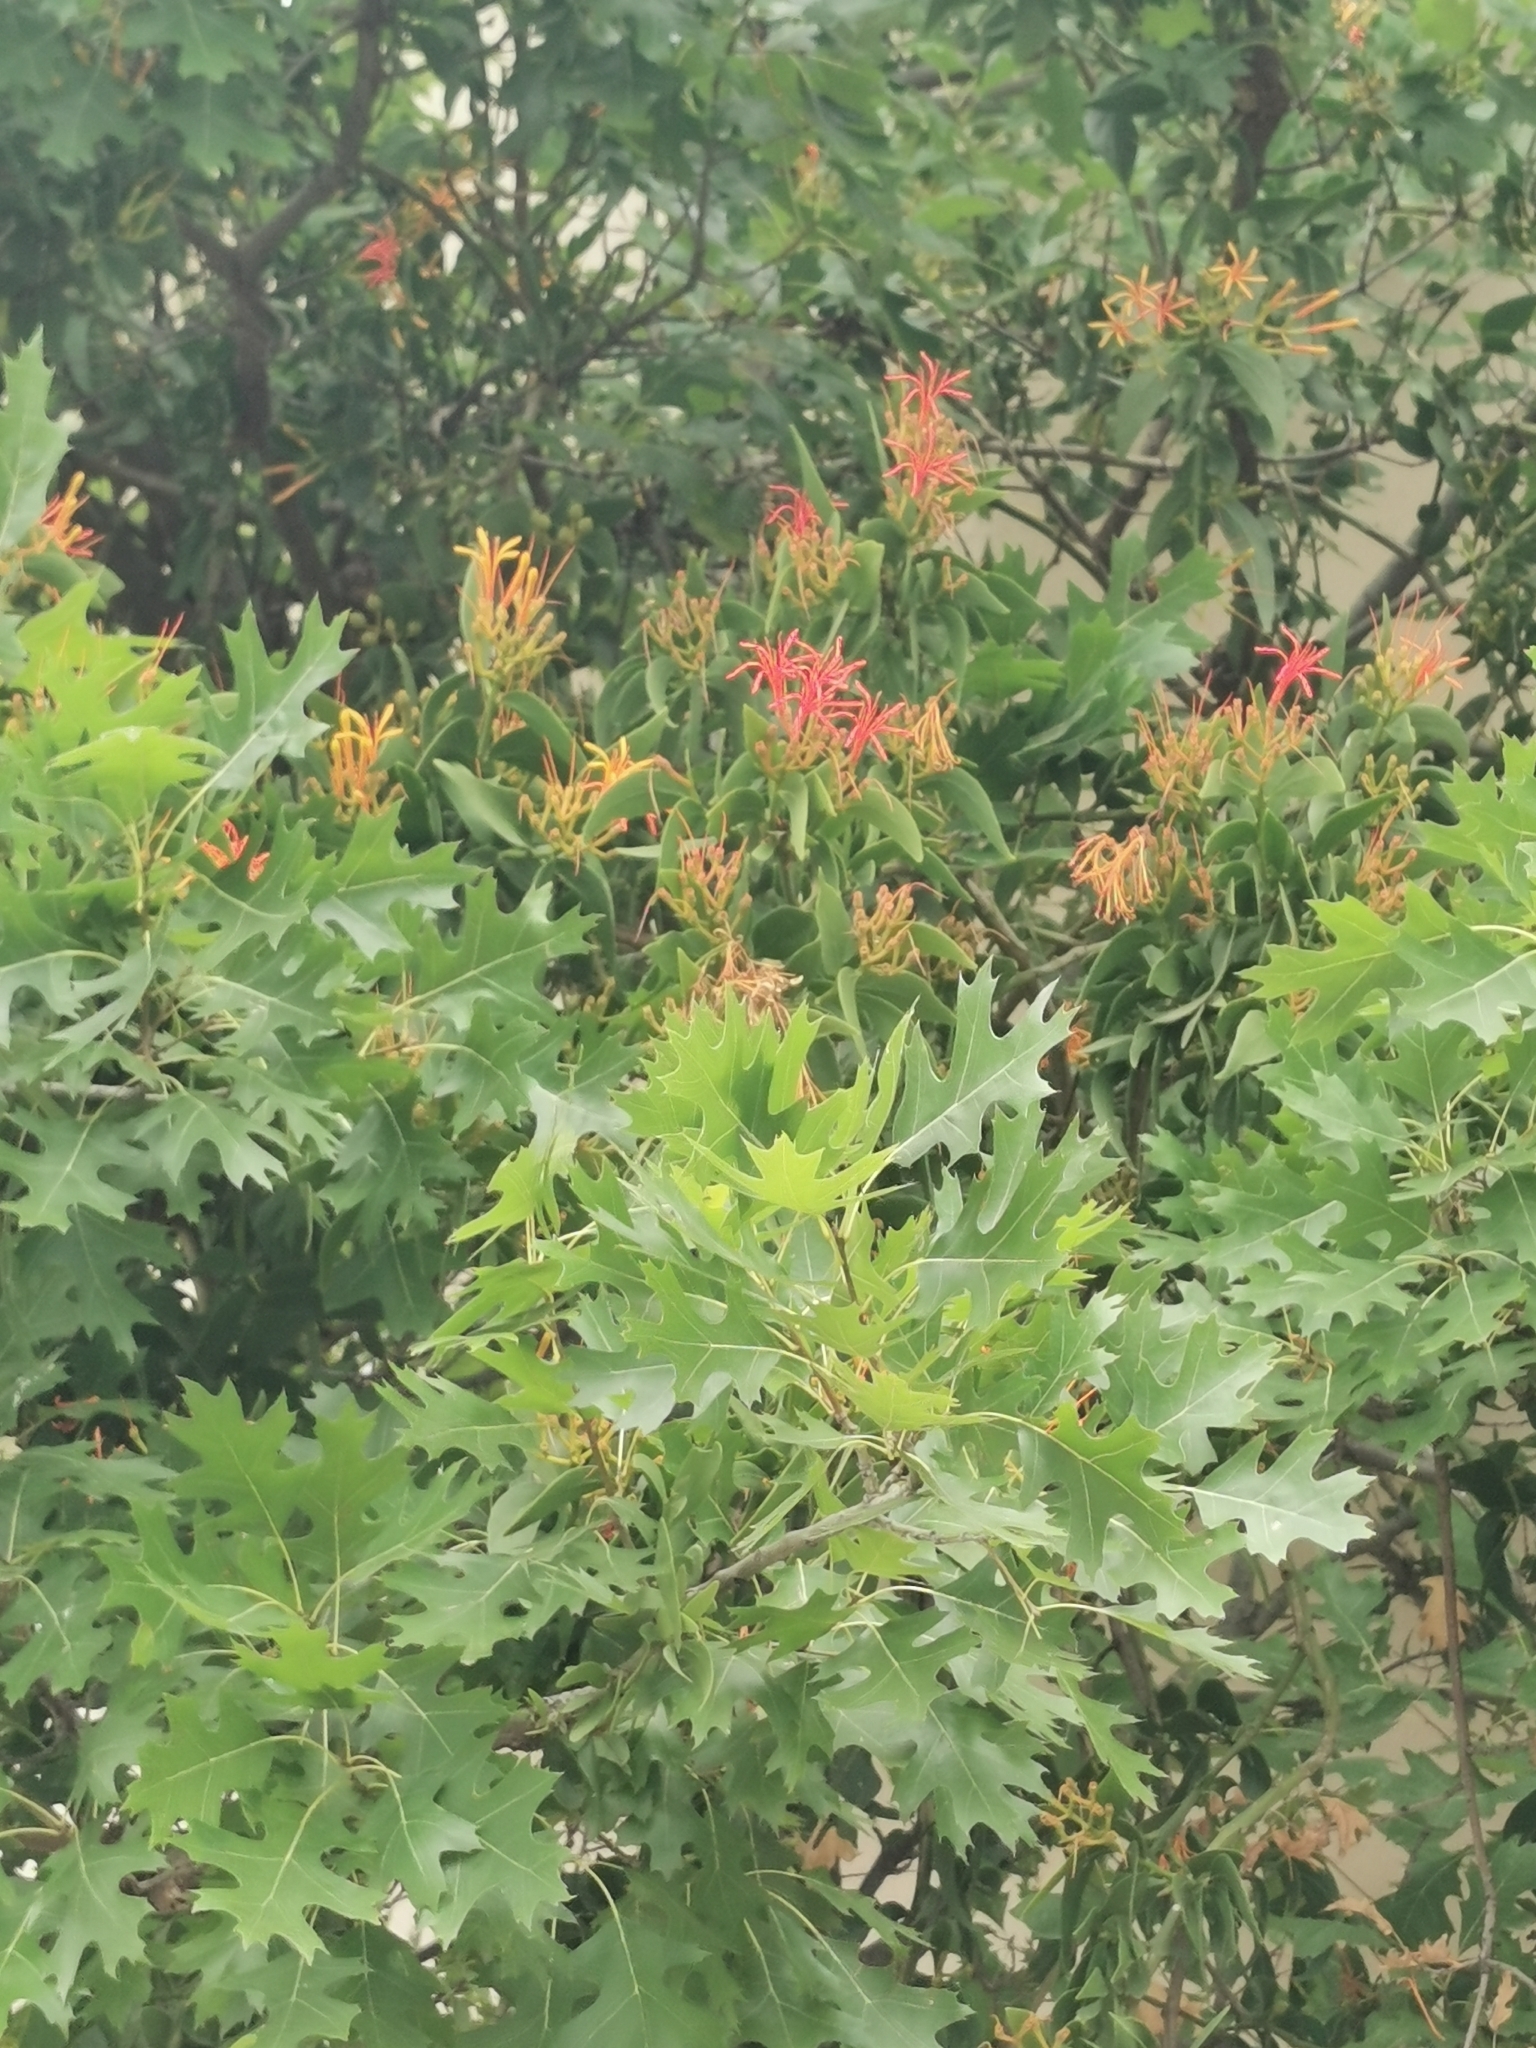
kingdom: Plantae
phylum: Tracheophyta
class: Magnoliopsida
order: Santalales
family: Loranthaceae
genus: Psittacanthus
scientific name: Psittacanthus calyculatus
